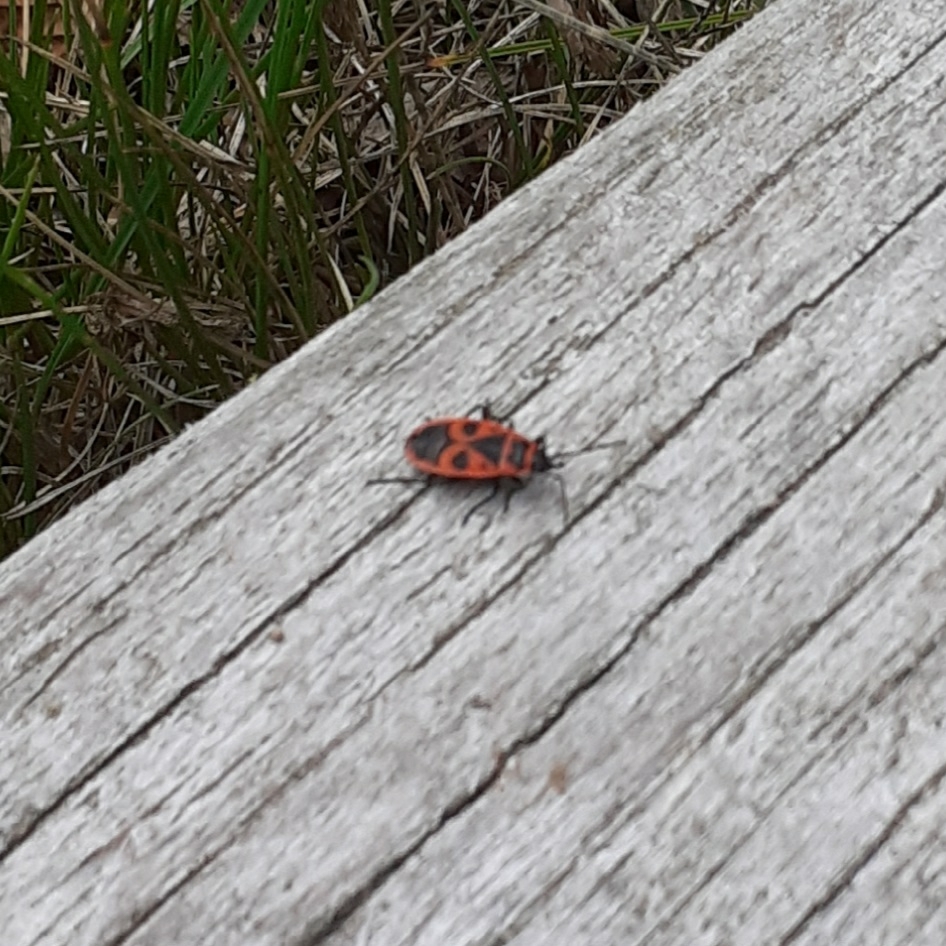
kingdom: Animalia
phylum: Arthropoda
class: Insecta
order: Hemiptera
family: Pyrrhocoridae
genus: Pyrrhocoris
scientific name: Pyrrhocoris apterus
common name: Firebug
